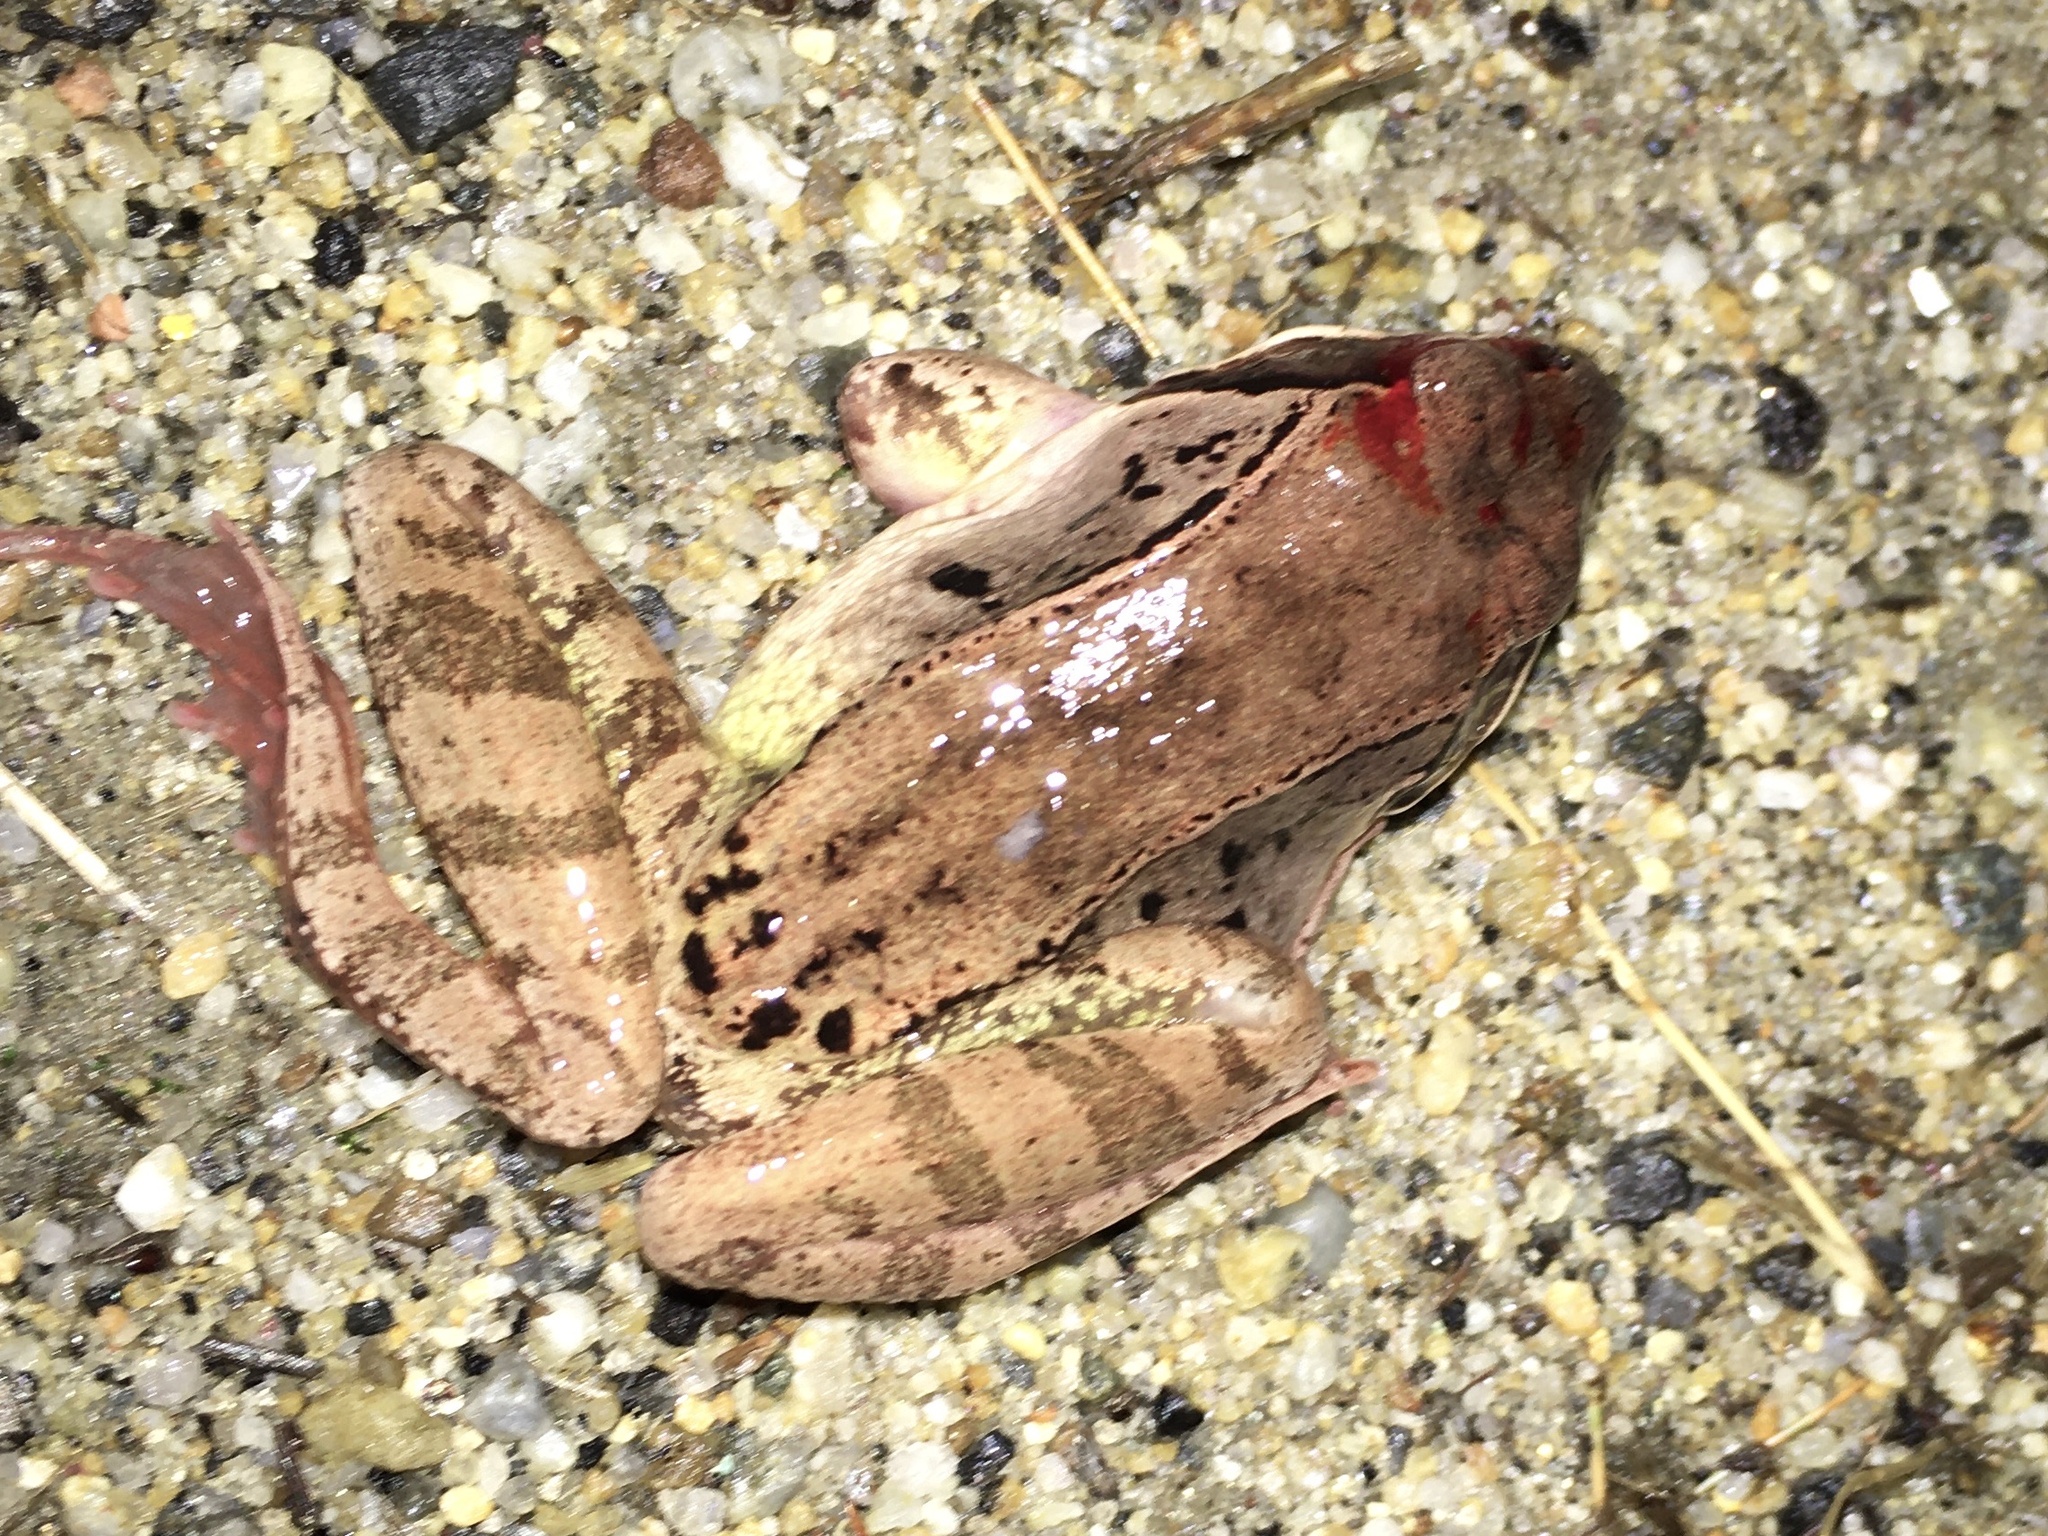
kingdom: Animalia
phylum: Chordata
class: Amphibia
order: Anura
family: Ranidae
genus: Lithobates
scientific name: Lithobates sylvaticus
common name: Wood frog
